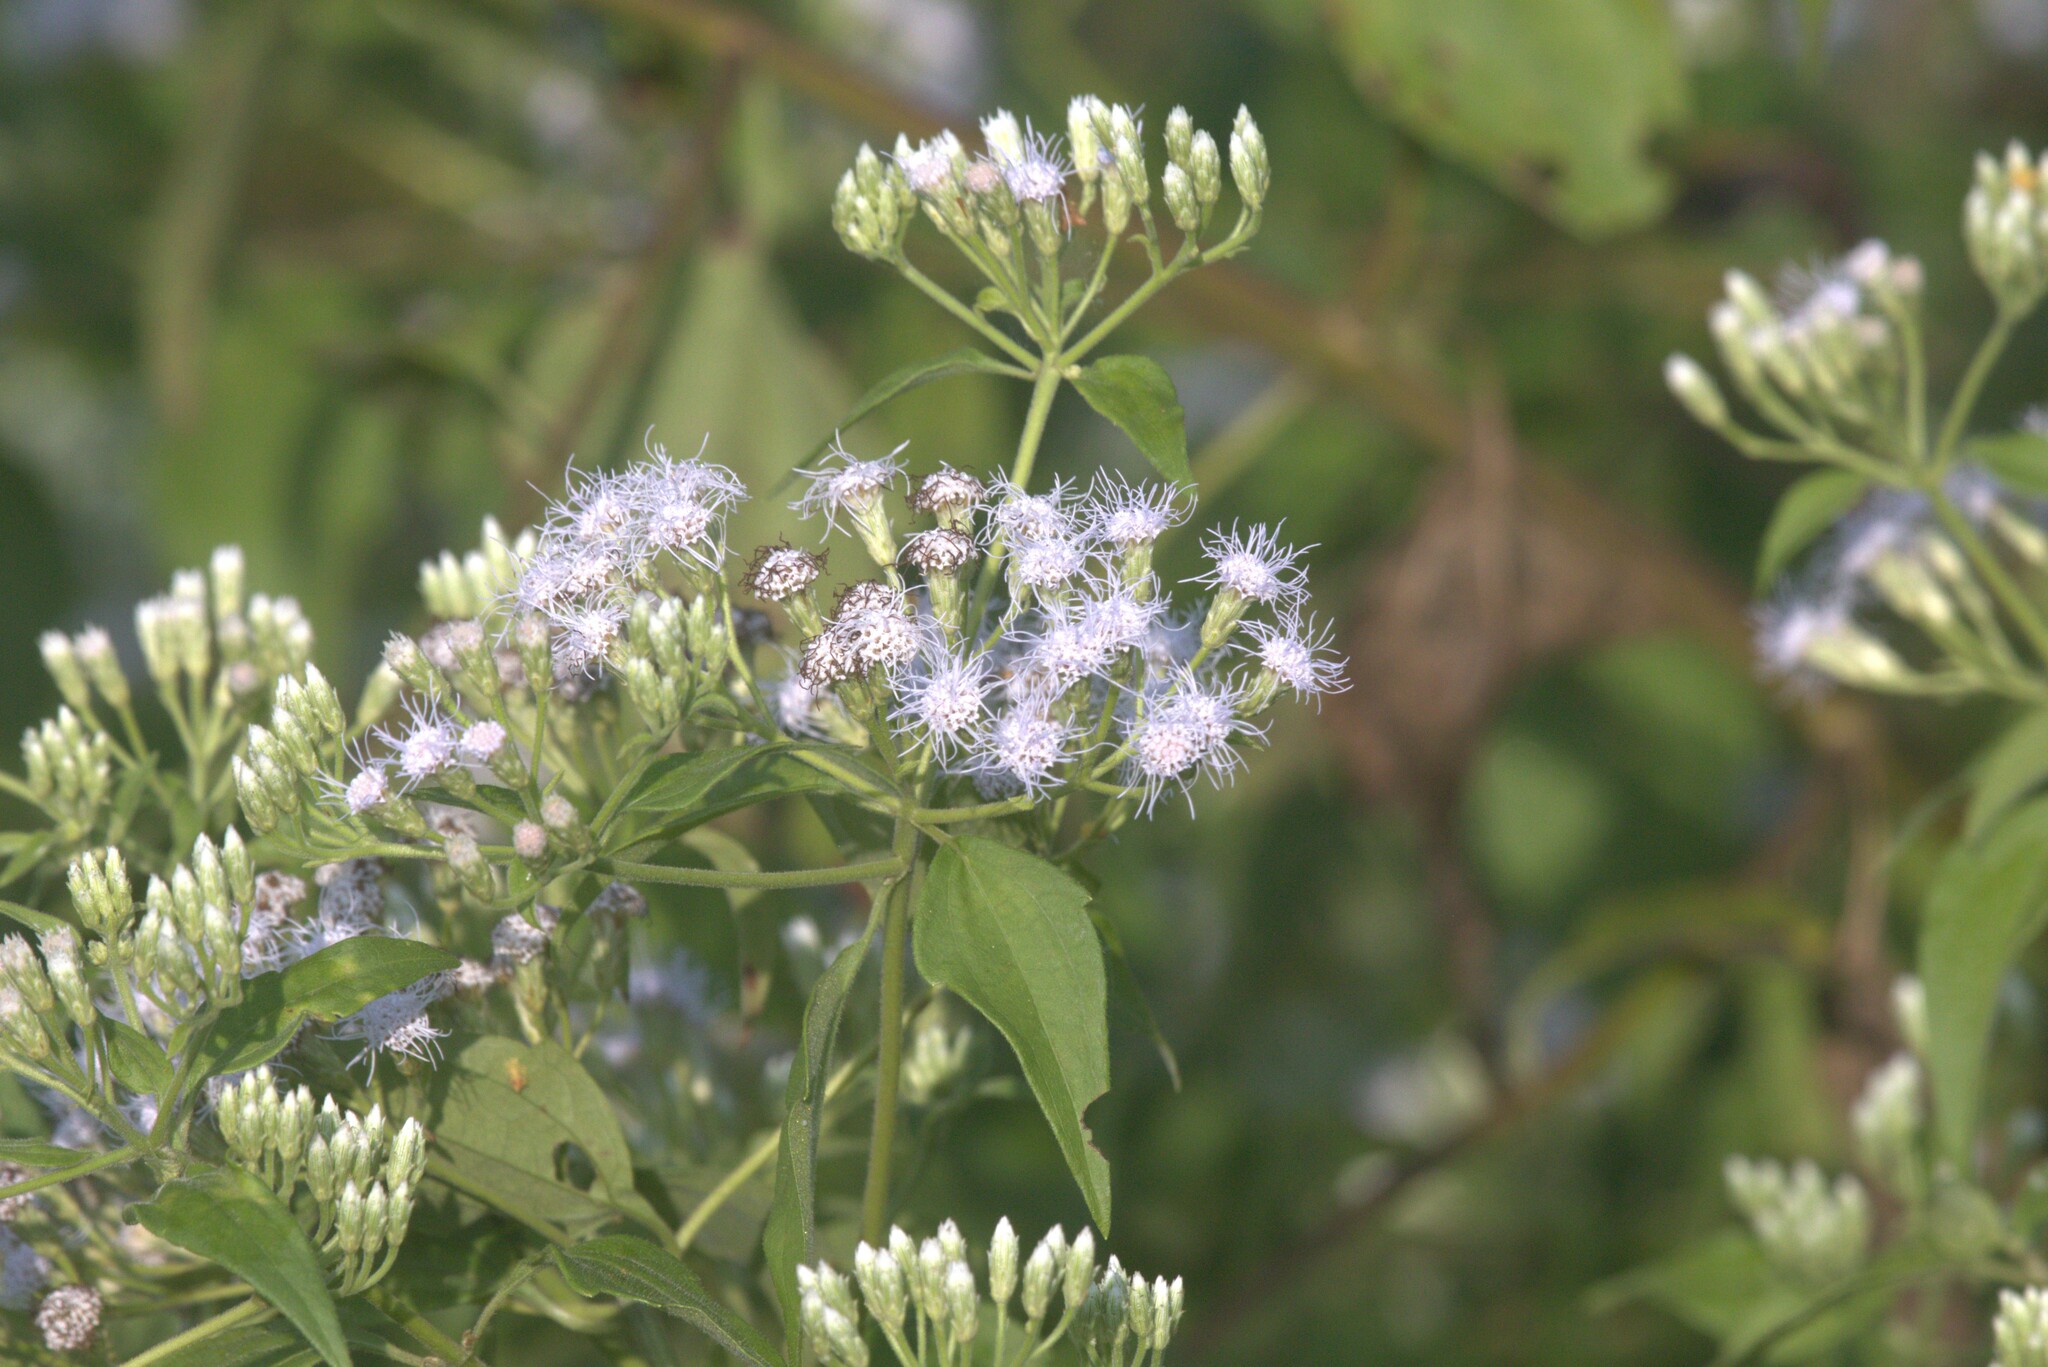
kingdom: Plantae
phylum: Tracheophyta
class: Magnoliopsida
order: Asterales
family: Asteraceae
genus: Chromolaena
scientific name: Chromolaena odorata
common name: Siamweed
